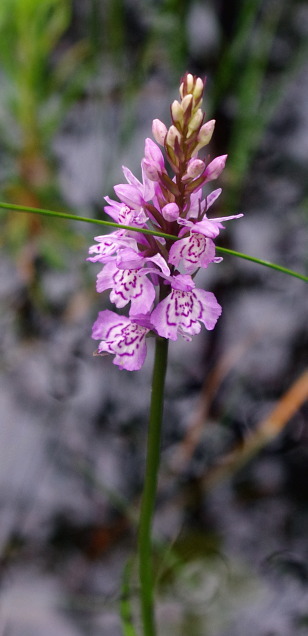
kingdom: Plantae
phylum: Tracheophyta
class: Liliopsida
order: Asparagales
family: Orchidaceae
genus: Dactylorhiza
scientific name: Dactylorhiza maculata
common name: Heath spotted-orchid
